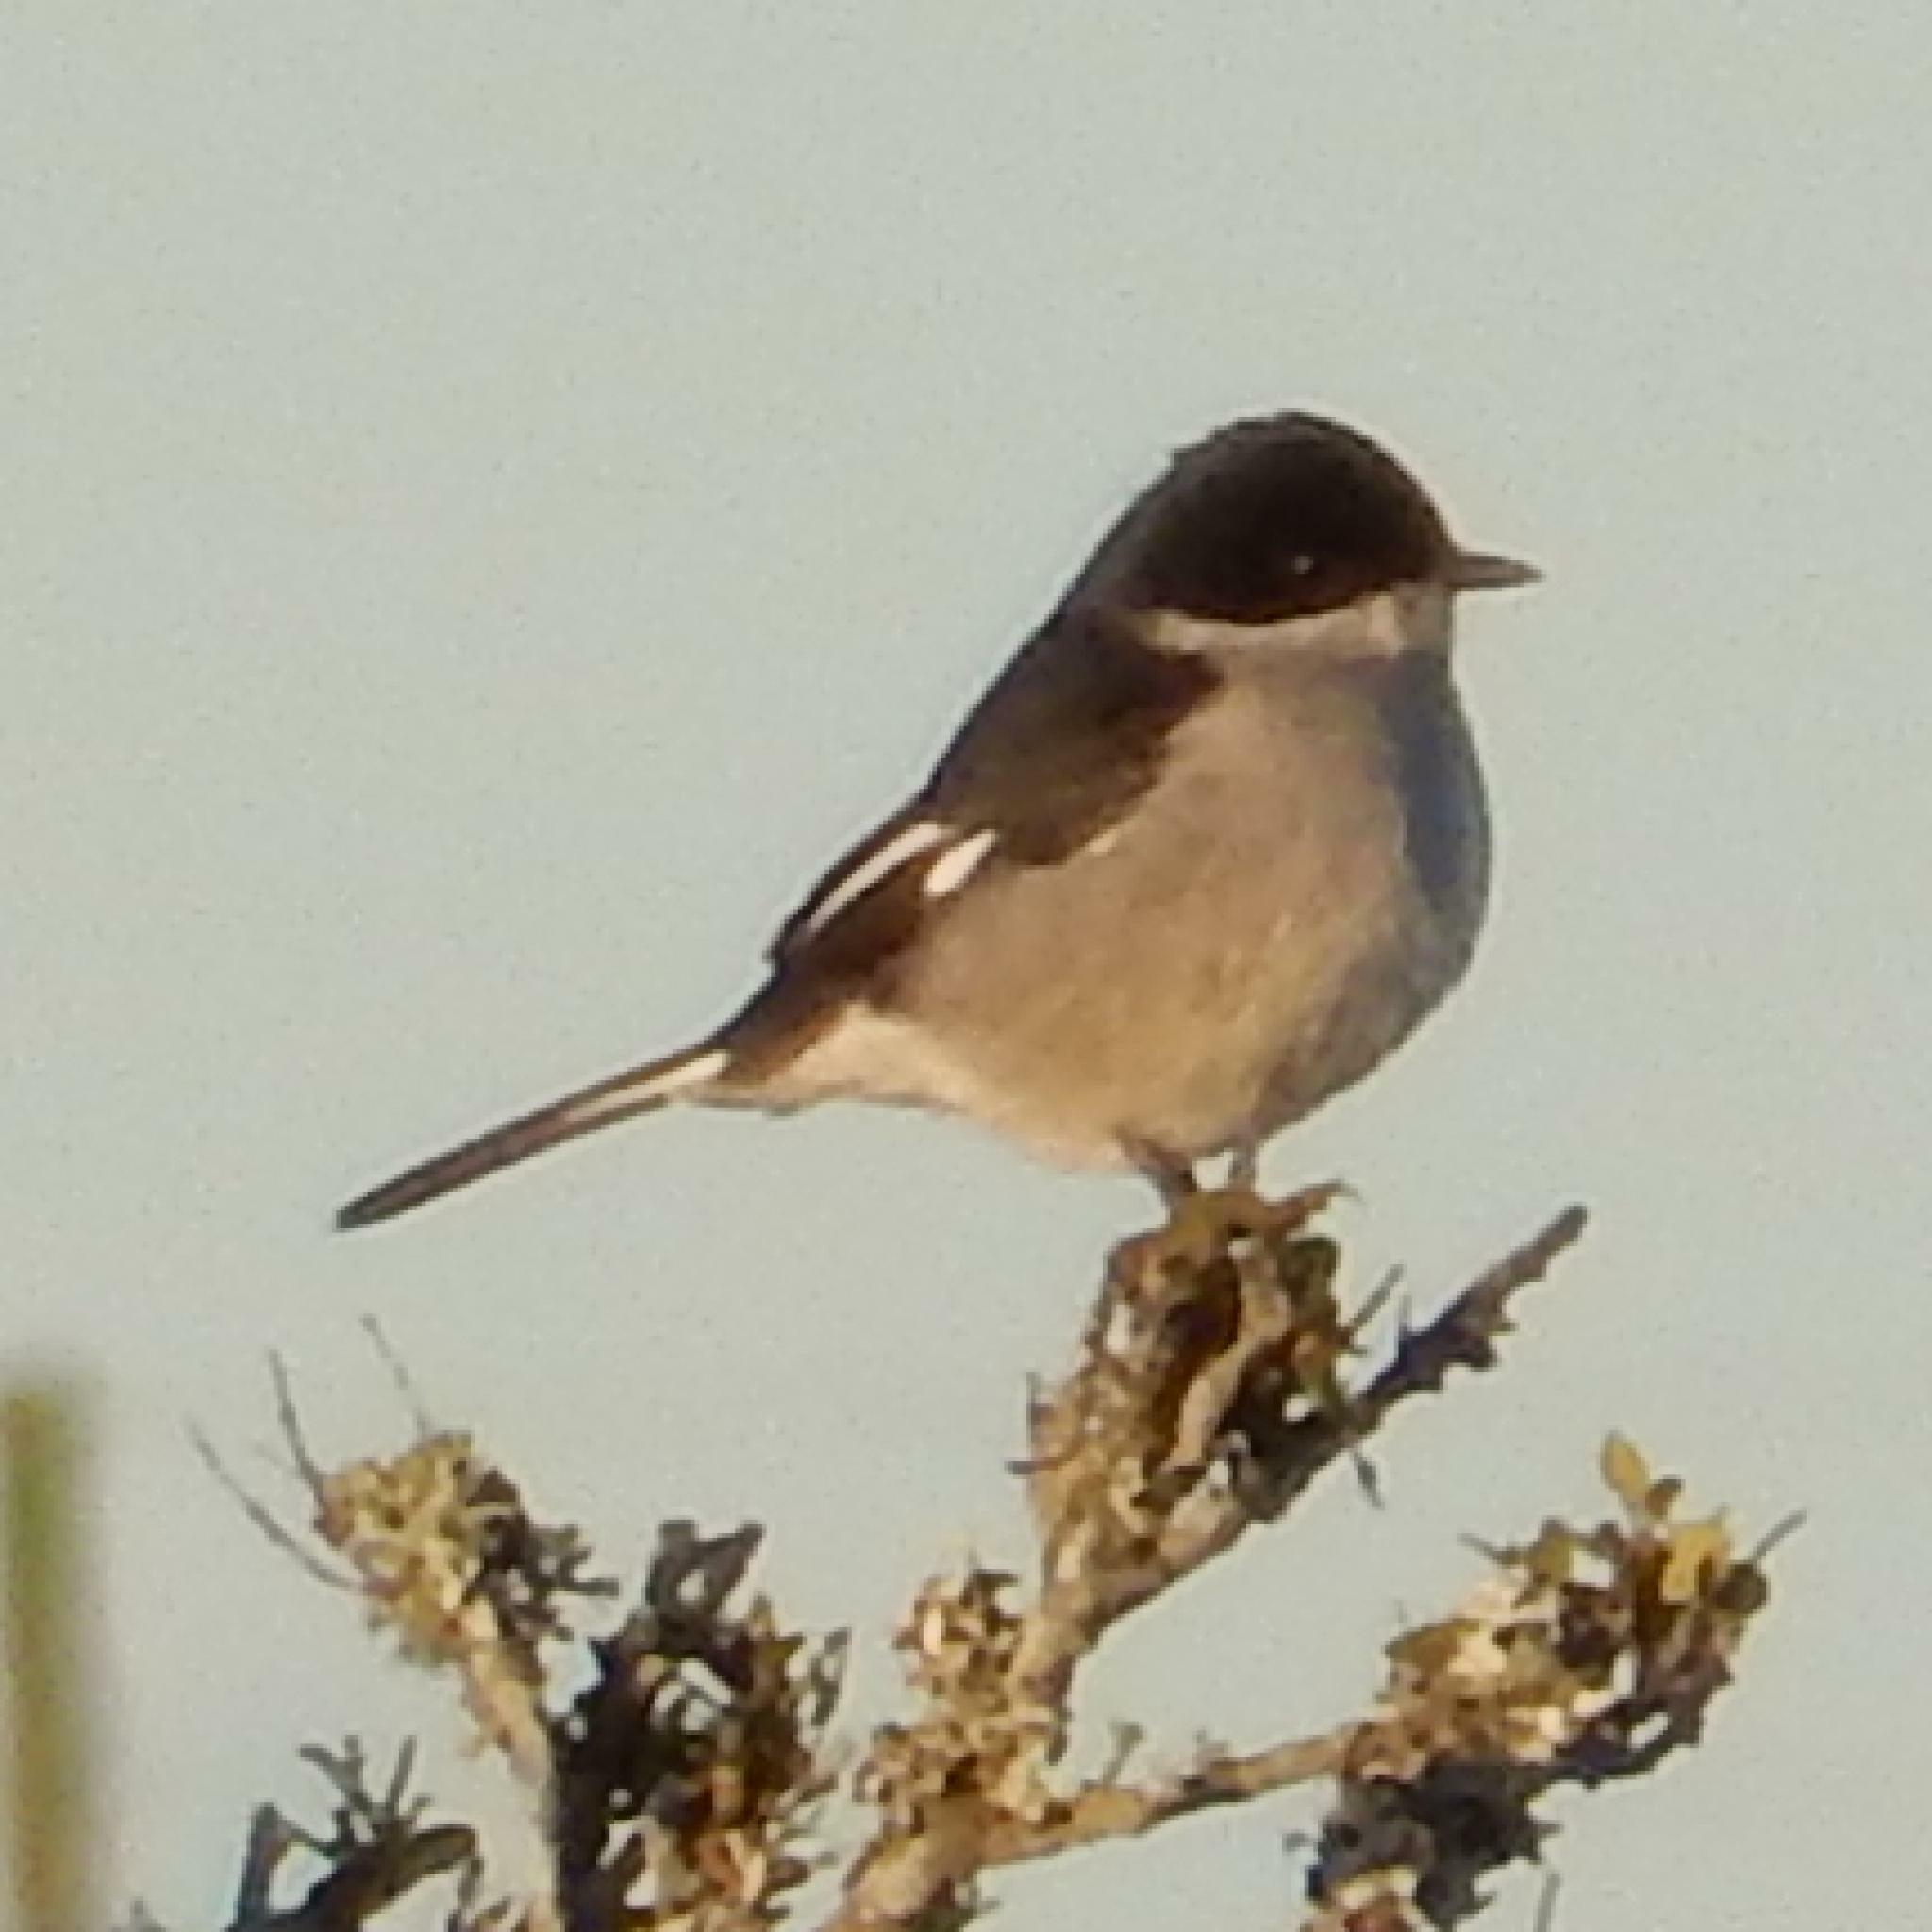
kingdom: Animalia
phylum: Chordata
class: Aves
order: Passeriformes
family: Muscicapidae
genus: Sigelus
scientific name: Sigelus silens
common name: Fiscal flycatcher
